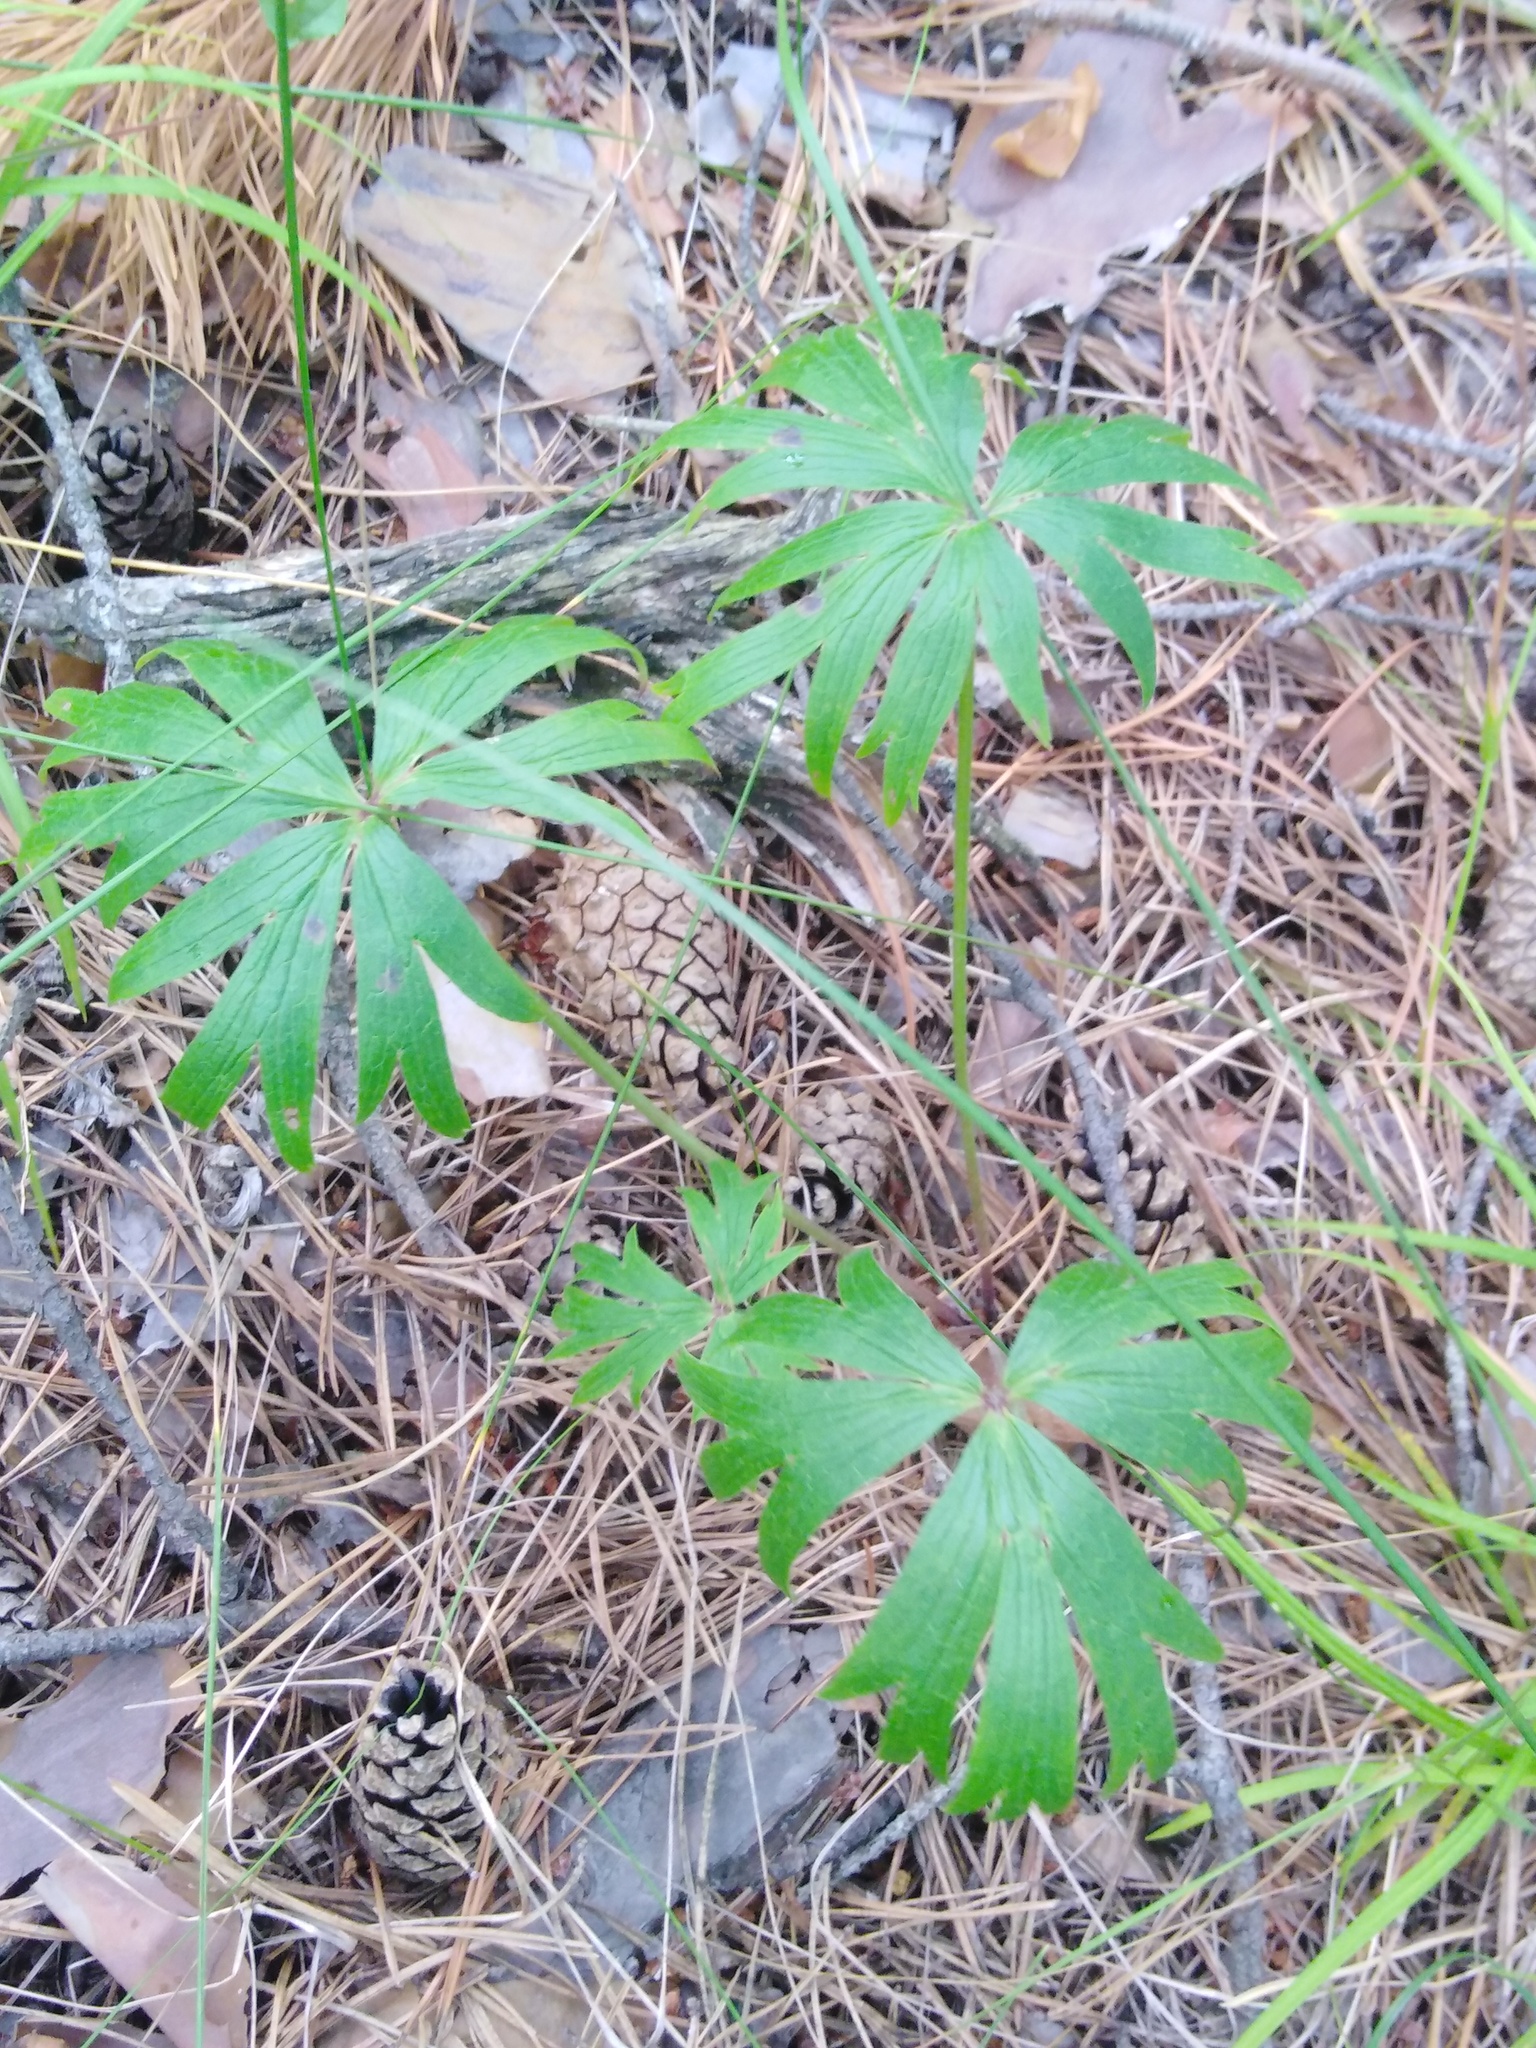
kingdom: Plantae
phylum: Tracheophyta
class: Magnoliopsida
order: Ranunculales
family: Ranunculaceae
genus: Pulsatilla
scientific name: Pulsatilla patens
